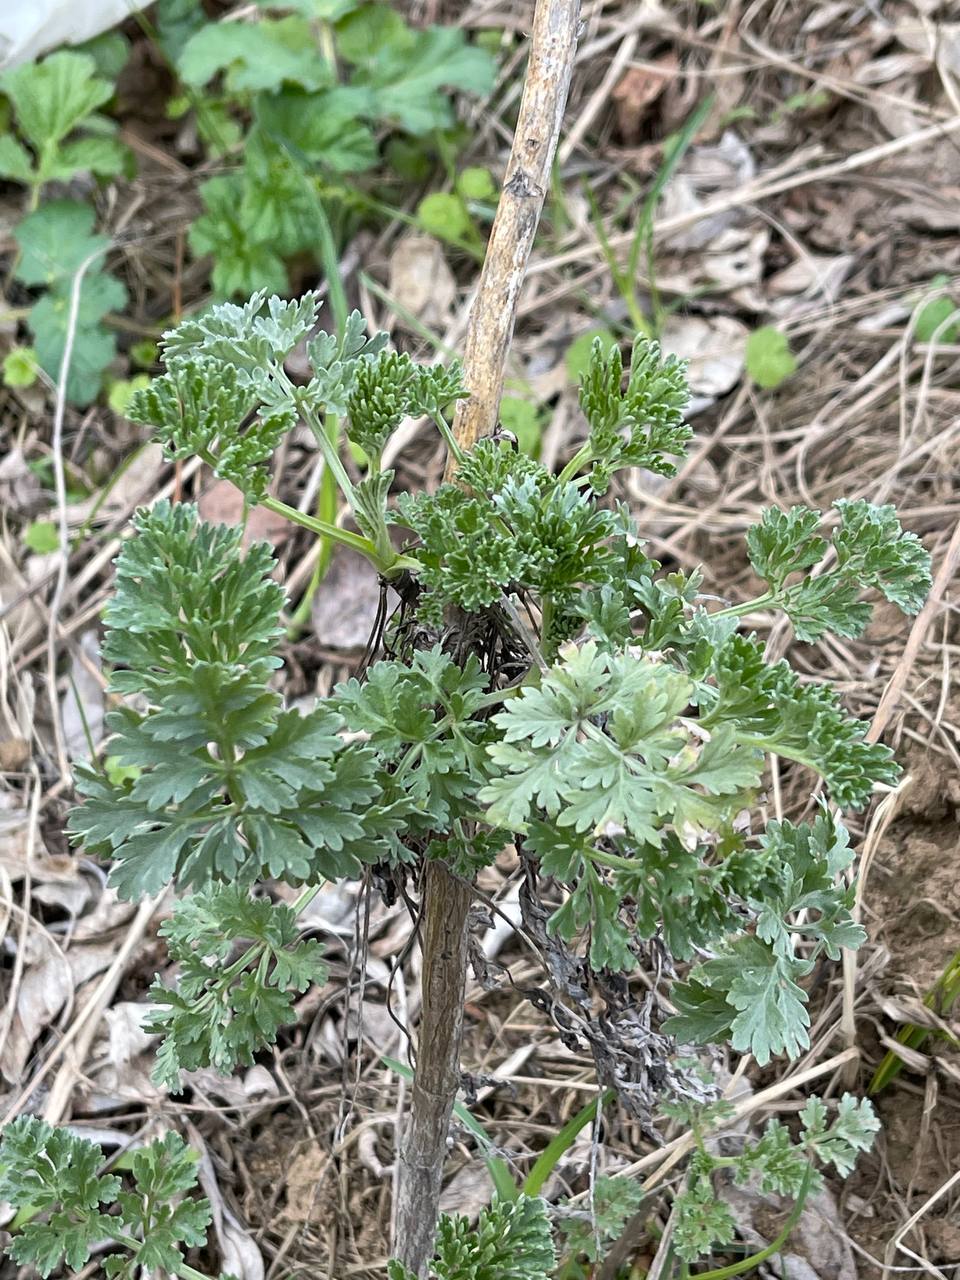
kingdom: Plantae
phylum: Tracheophyta
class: Magnoliopsida
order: Asterales
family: Asteraceae
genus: Artemisia
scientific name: Artemisia absinthium
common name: Wormwood
